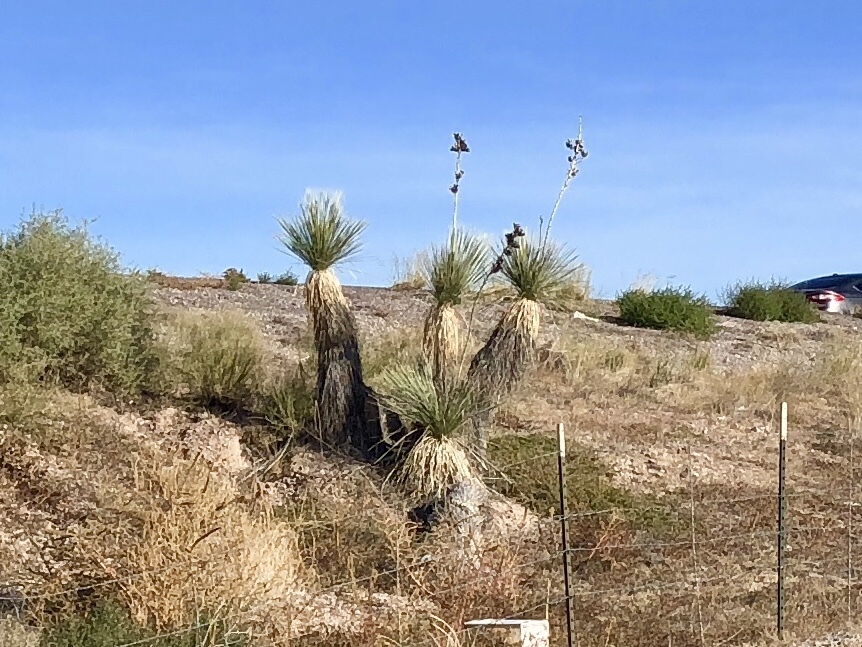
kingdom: Plantae
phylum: Tracheophyta
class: Liliopsida
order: Asparagales
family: Asparagaceae
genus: Yucca
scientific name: Yucca elata
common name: Palmella
